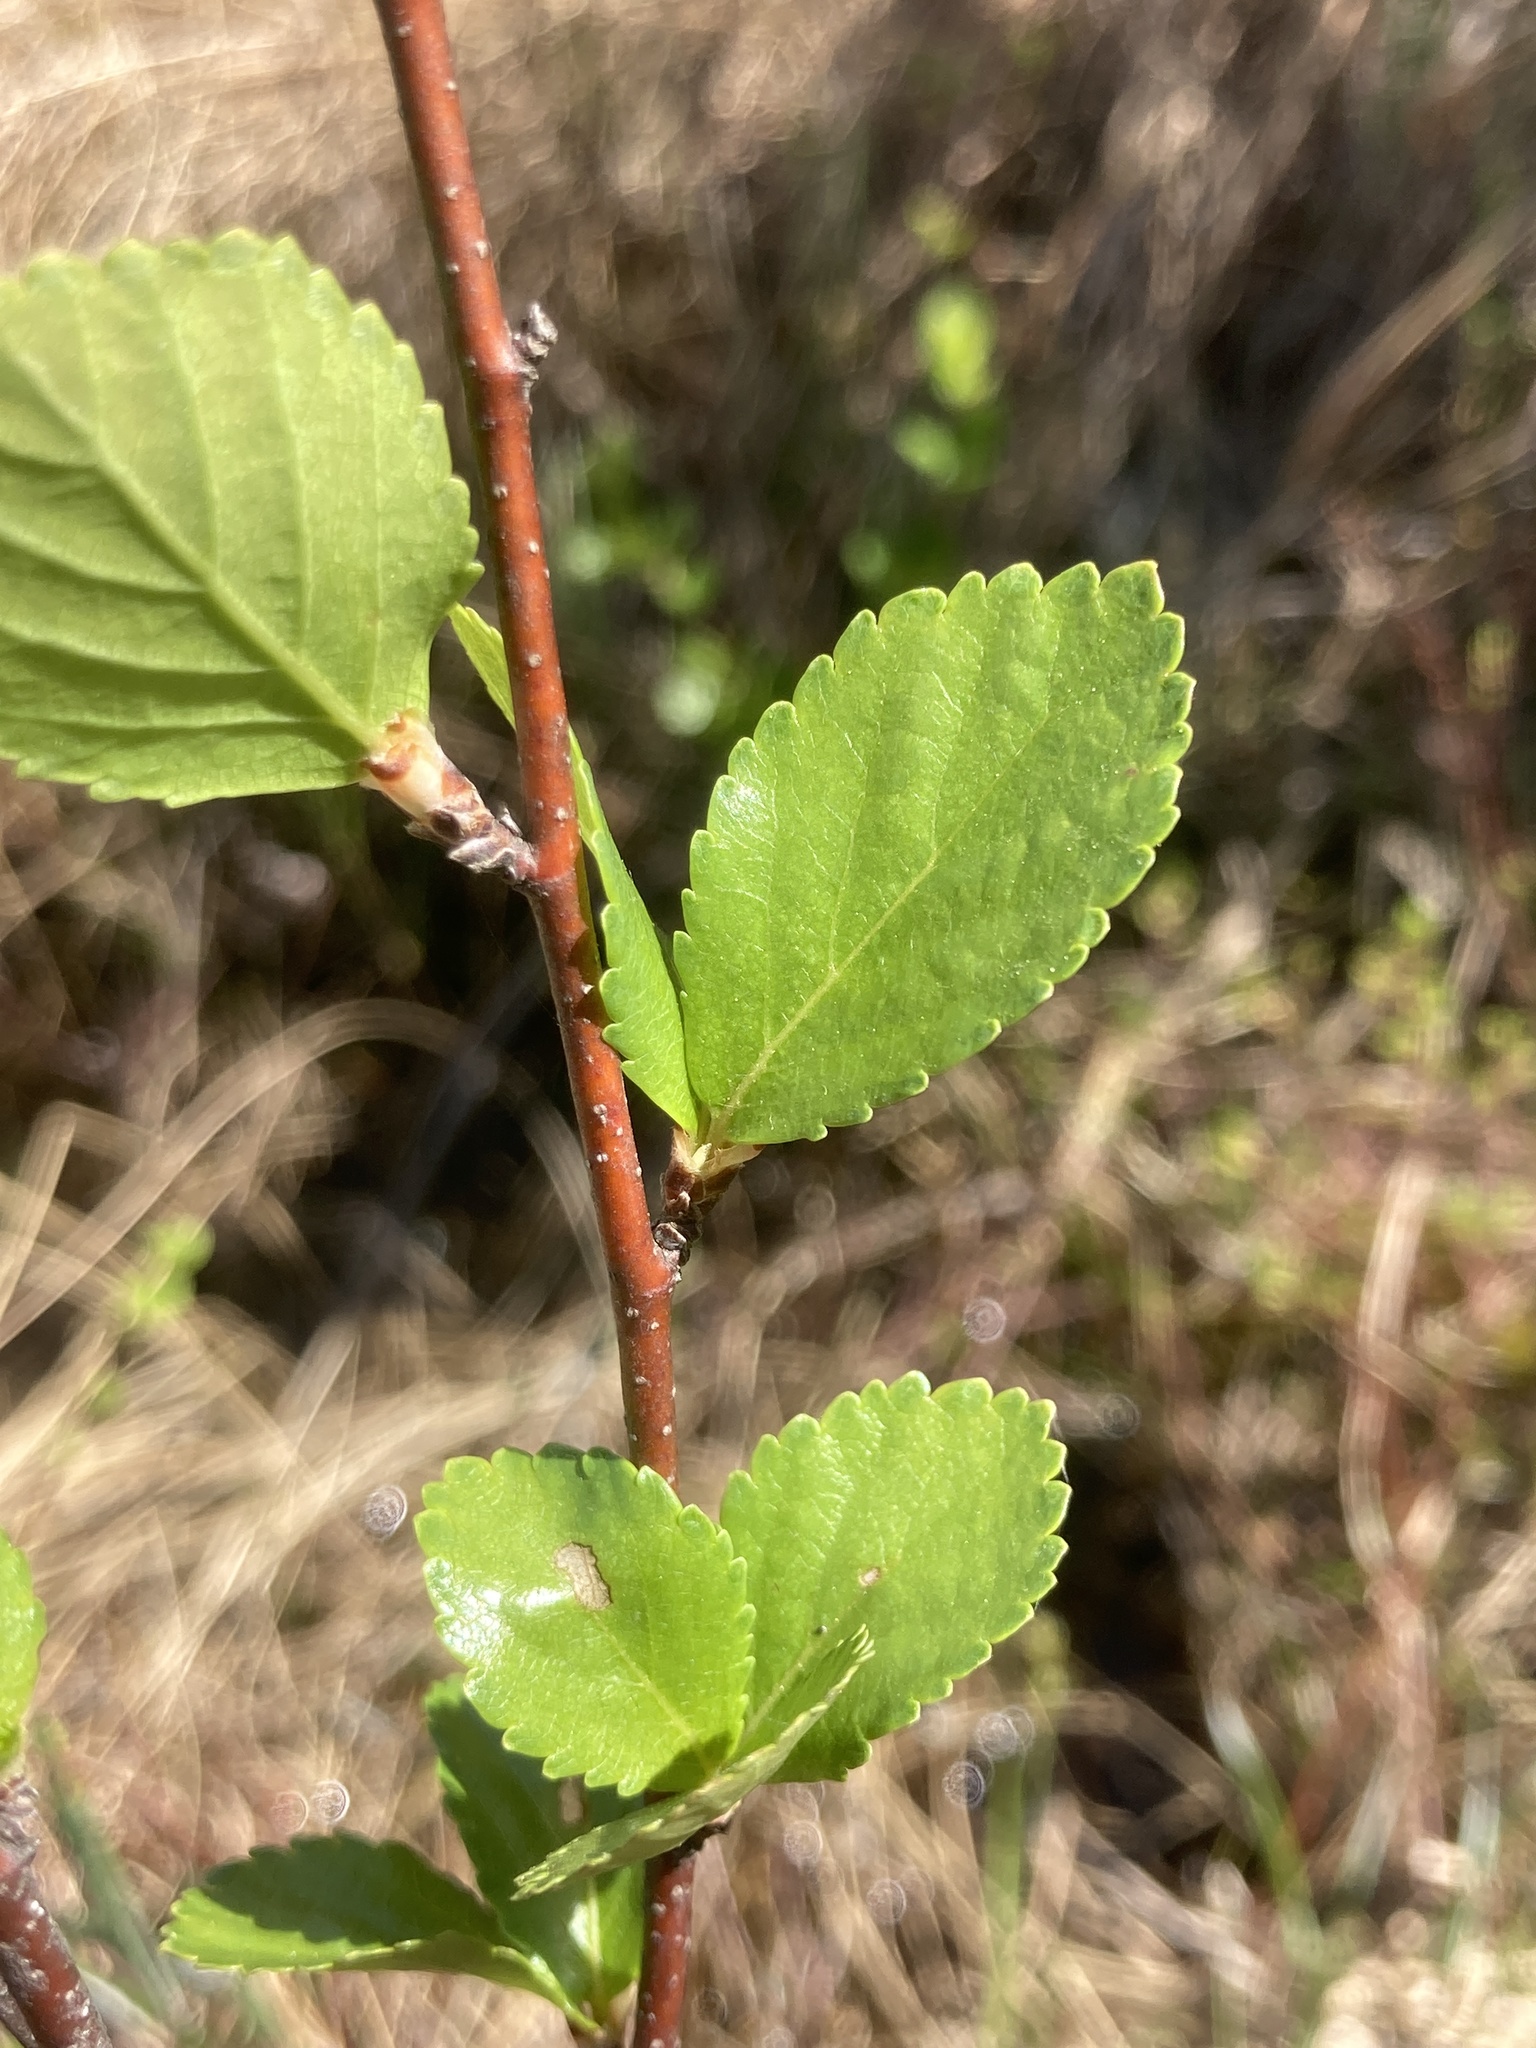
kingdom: Plantae
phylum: Tracheophyta
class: Magnoliopsida
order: Fagales
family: Betulaceae
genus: Betula
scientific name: Betula pumila
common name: Bog birch
